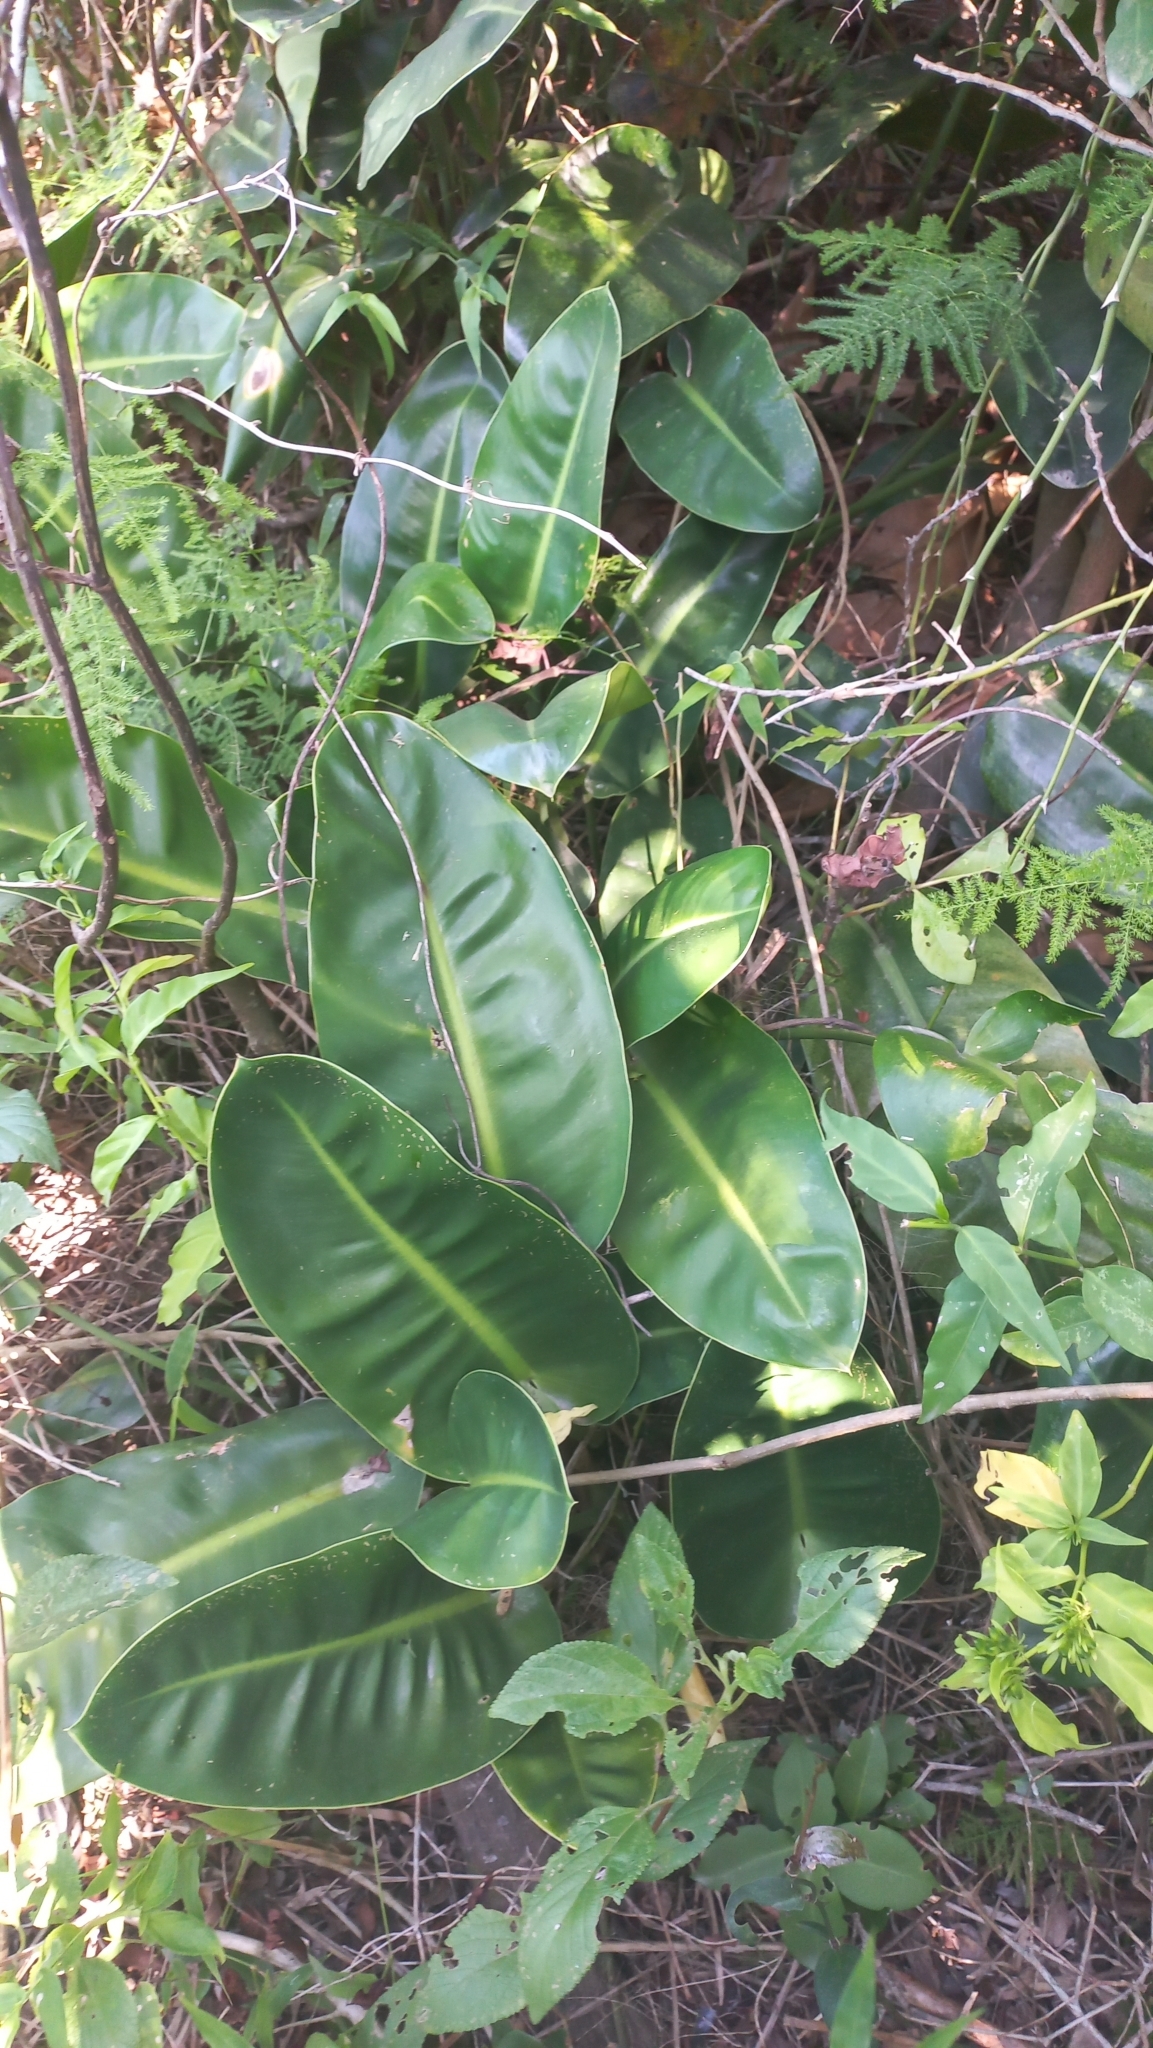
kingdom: Plantae
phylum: Tracheophyta
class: Liliopsida
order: Alismatales
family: Araceae
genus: Philodendron
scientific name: Philodendron renauxii
